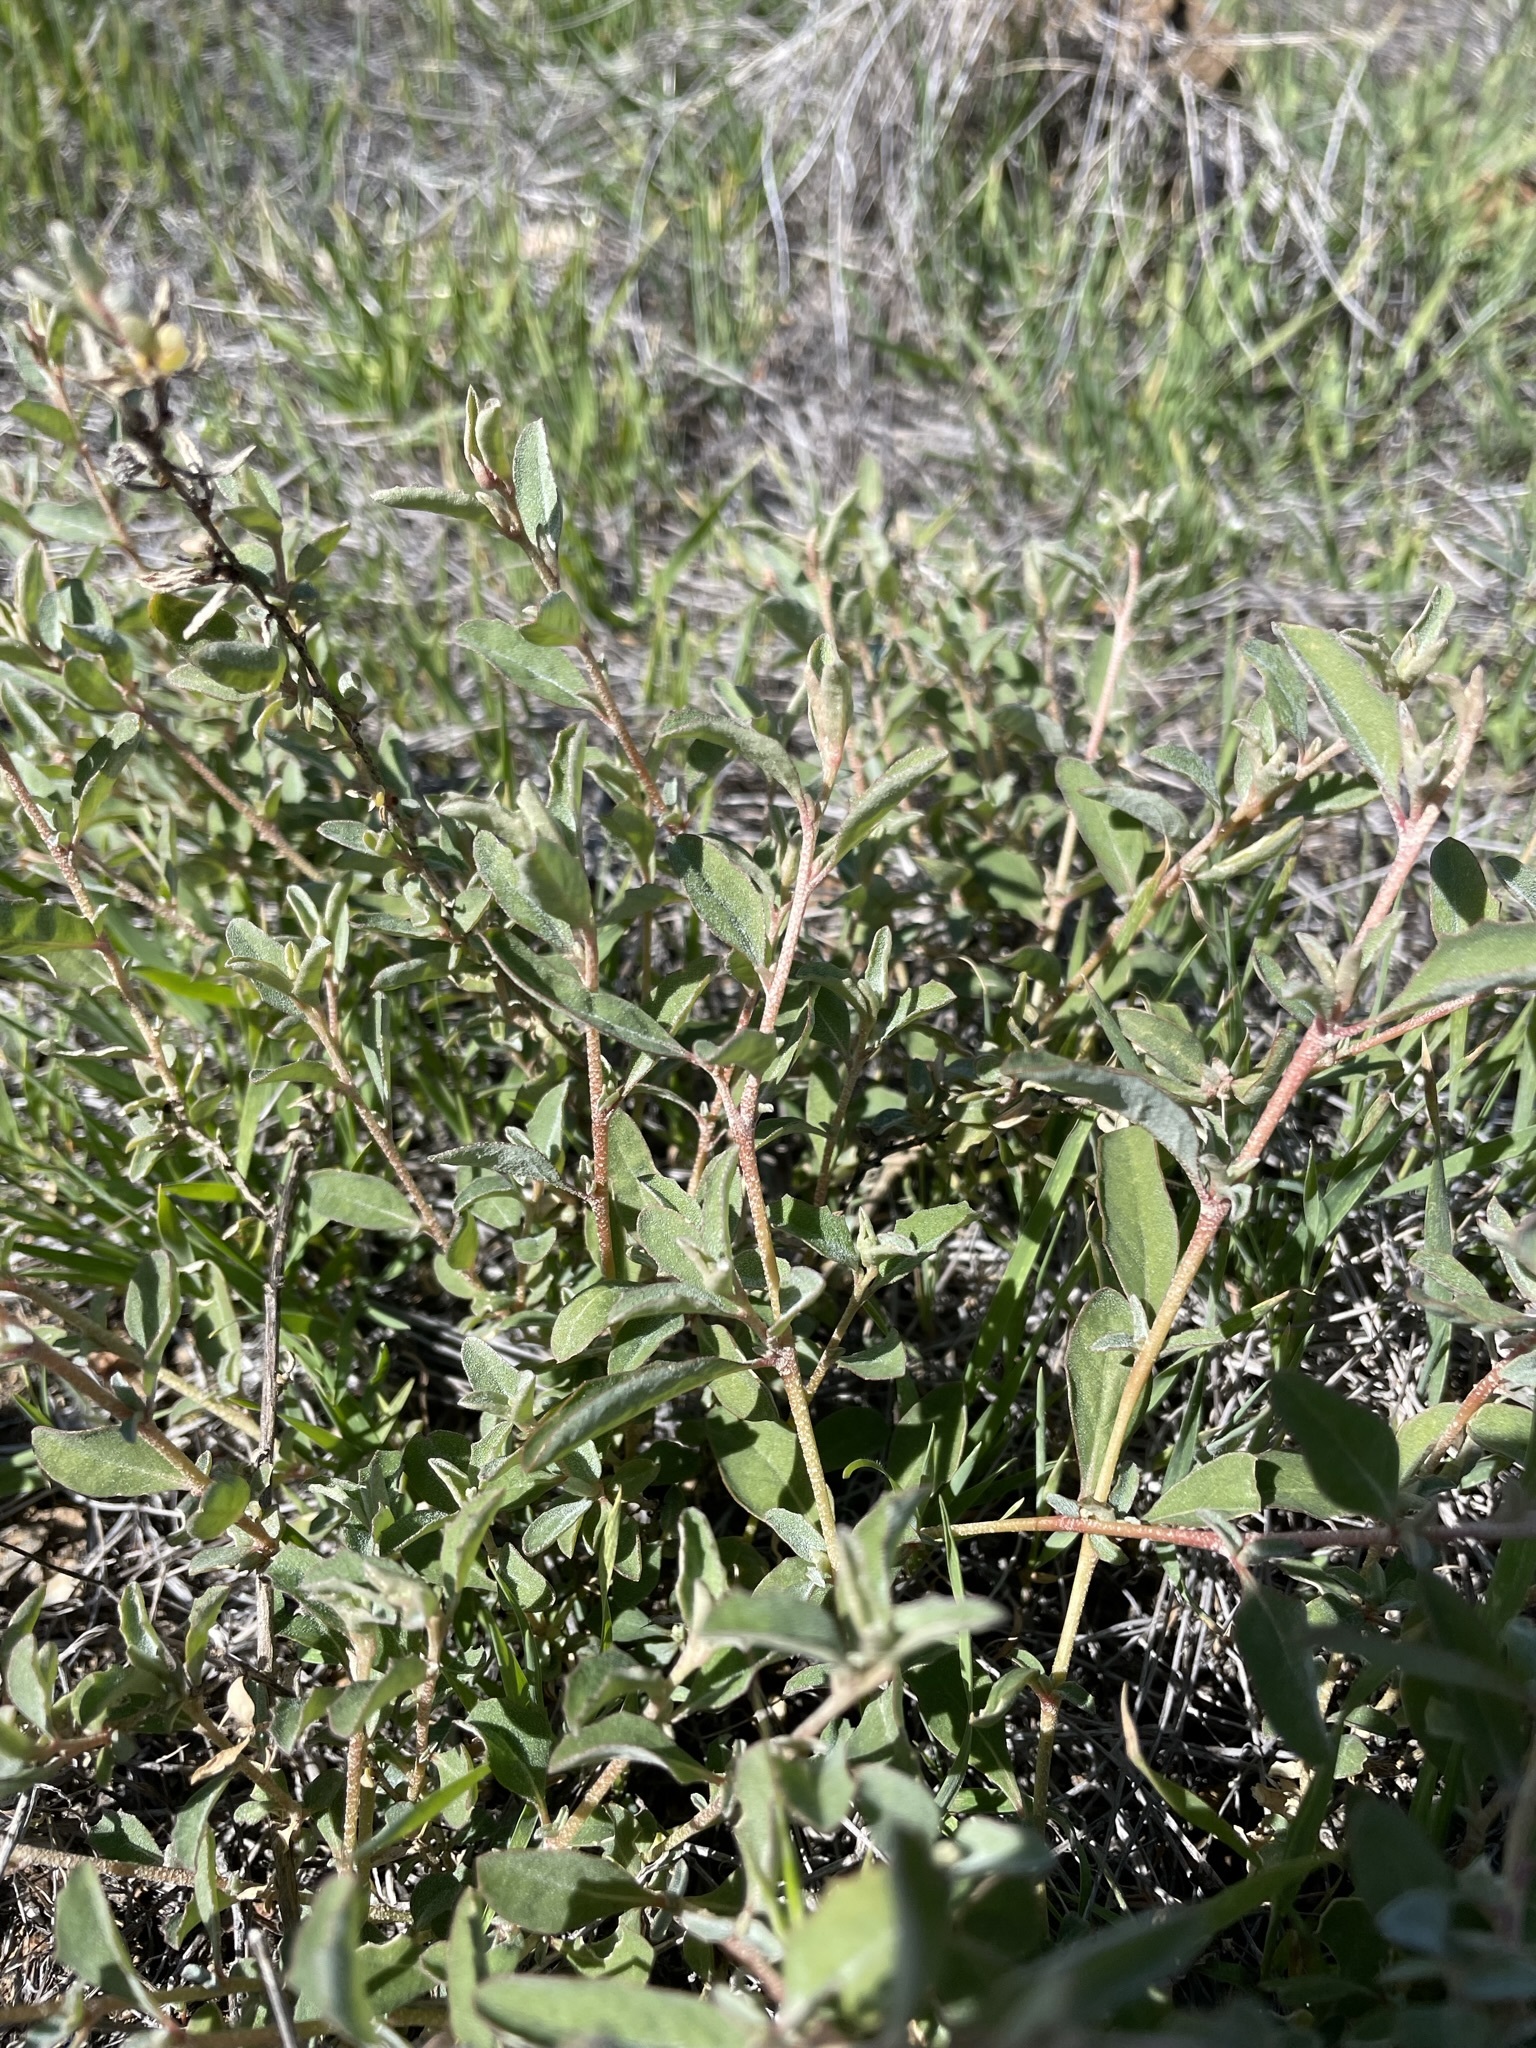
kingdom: Plantae
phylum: Tracheophyta
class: Magnoliopsida
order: Caryophyllales
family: Amaranthaceae
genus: Atriplex
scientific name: Atriplex semibaccata
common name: Australian saltbush
